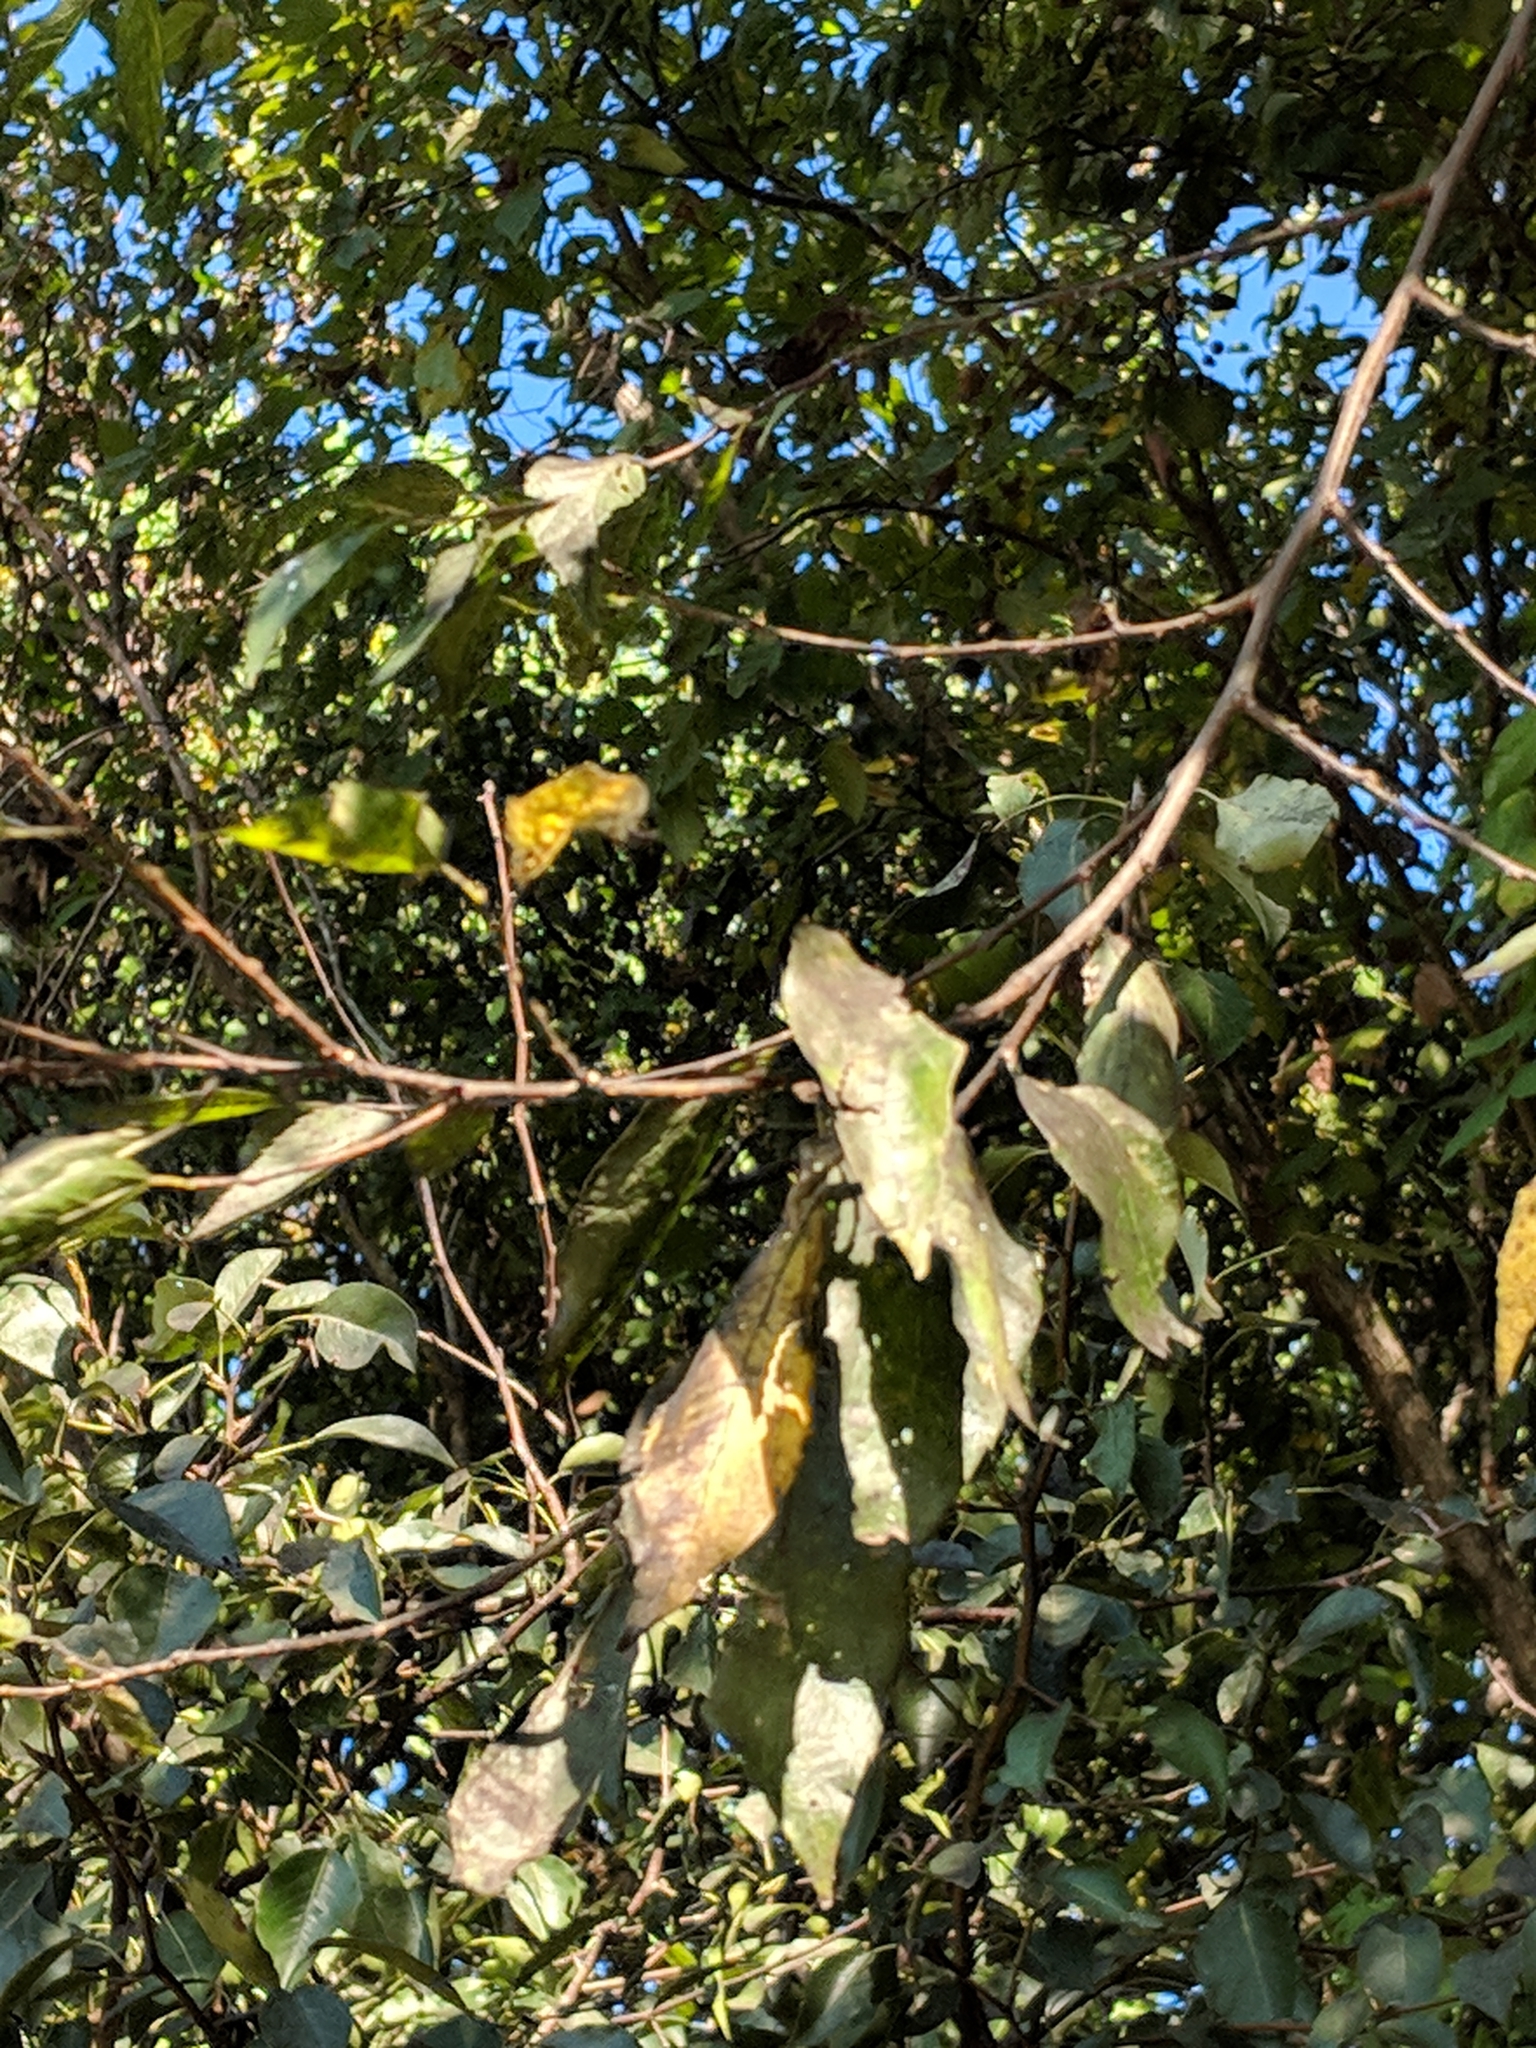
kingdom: Plantae
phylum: Tracheophyta
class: Magnoliopsida
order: Rosales
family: Cannabaceae
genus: Celtis
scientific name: Celtis laevigata
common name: Sugarberry
